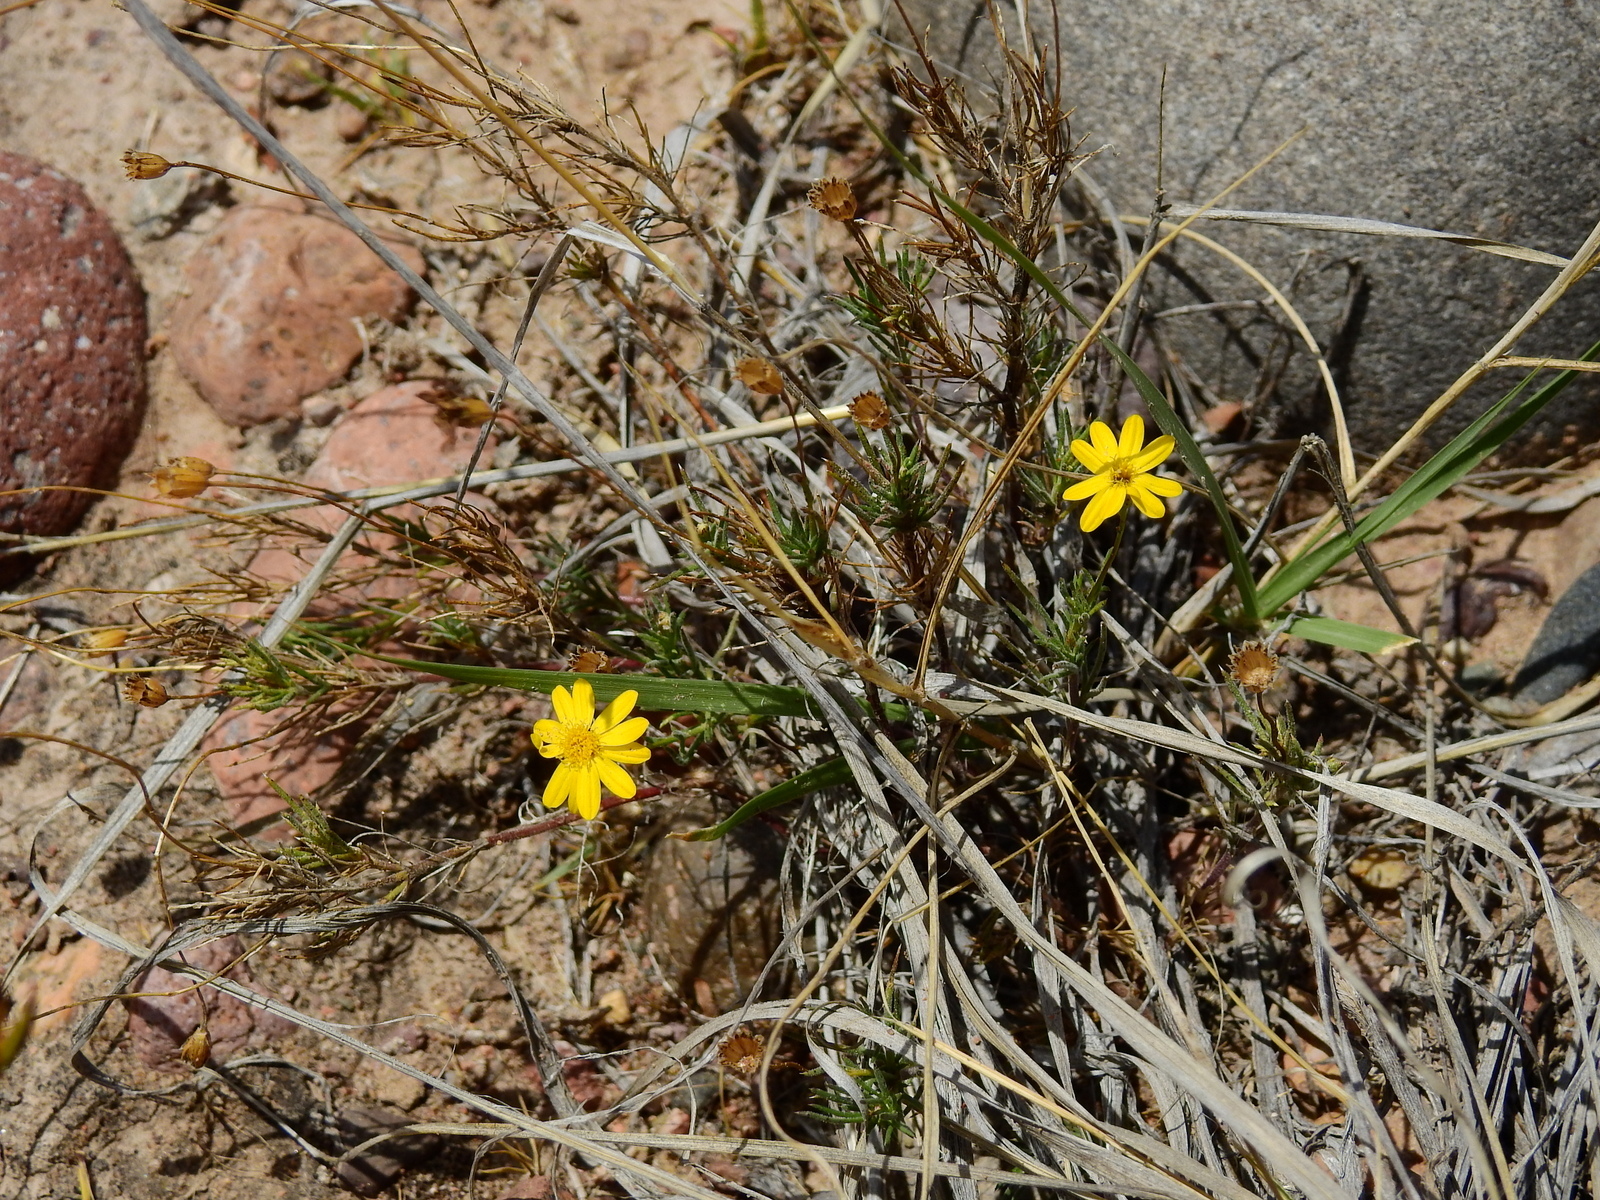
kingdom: Plantae
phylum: Tracheophyta
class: Magnoliopsida
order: Asterales
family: Asteraceae
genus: Thymophylla
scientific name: Thymophylla pentachaeta
